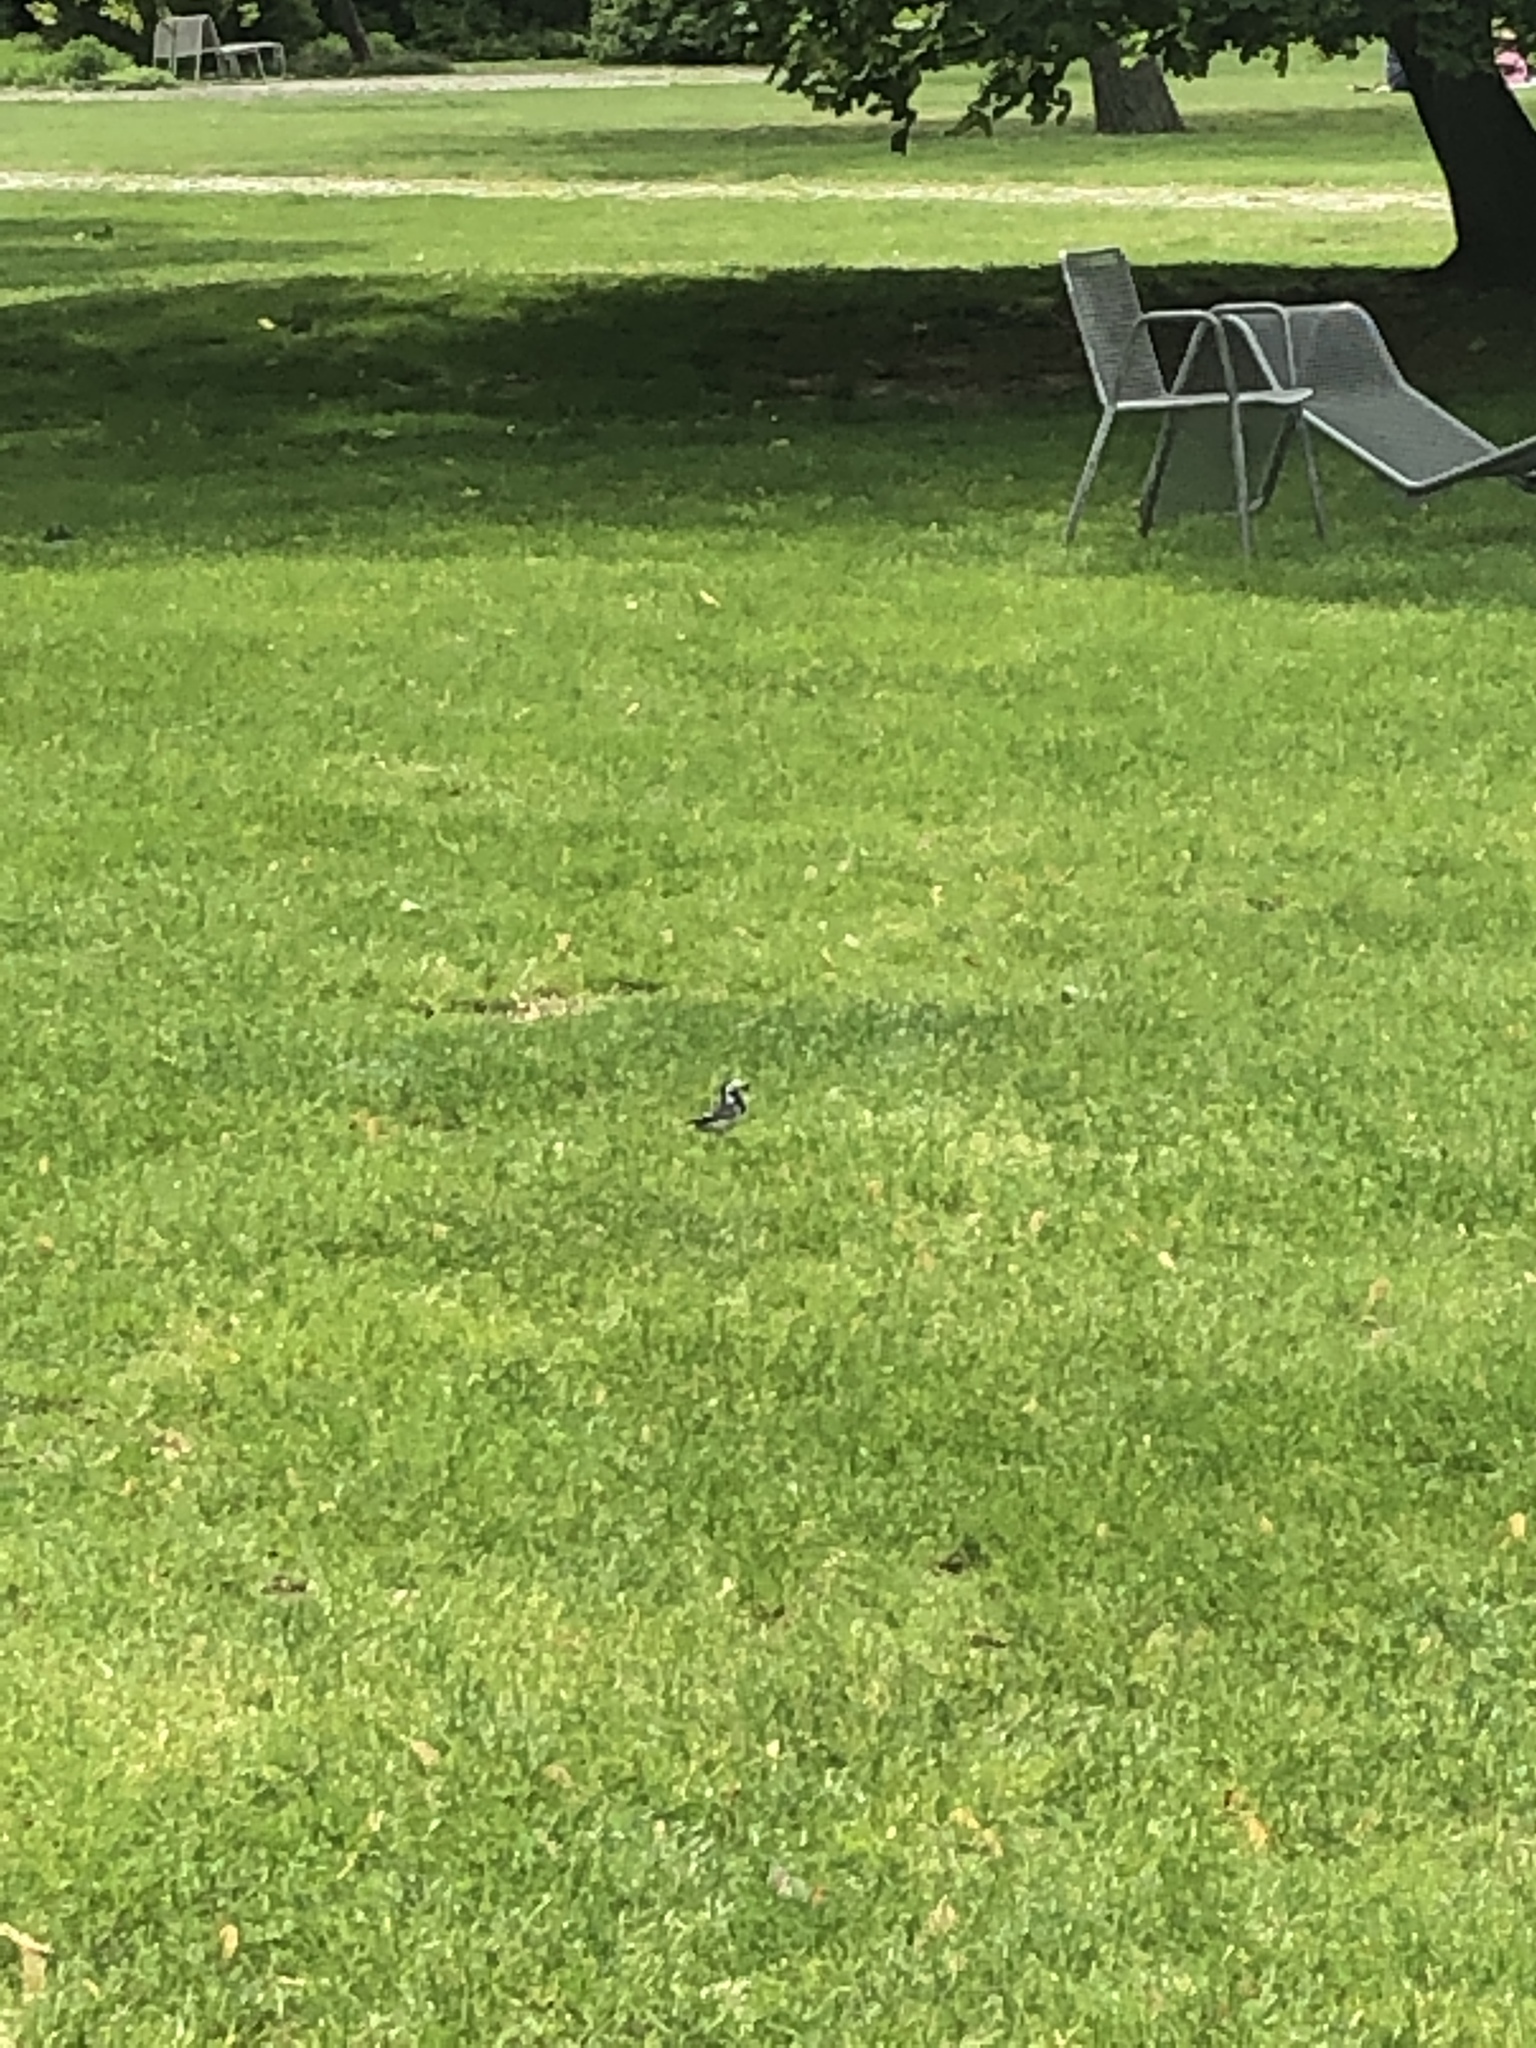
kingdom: Animalia
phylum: Chordata
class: Aves
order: Passeriformes
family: Motacillidae
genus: Motacilla
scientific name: Motacilla alba
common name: White wagtail
